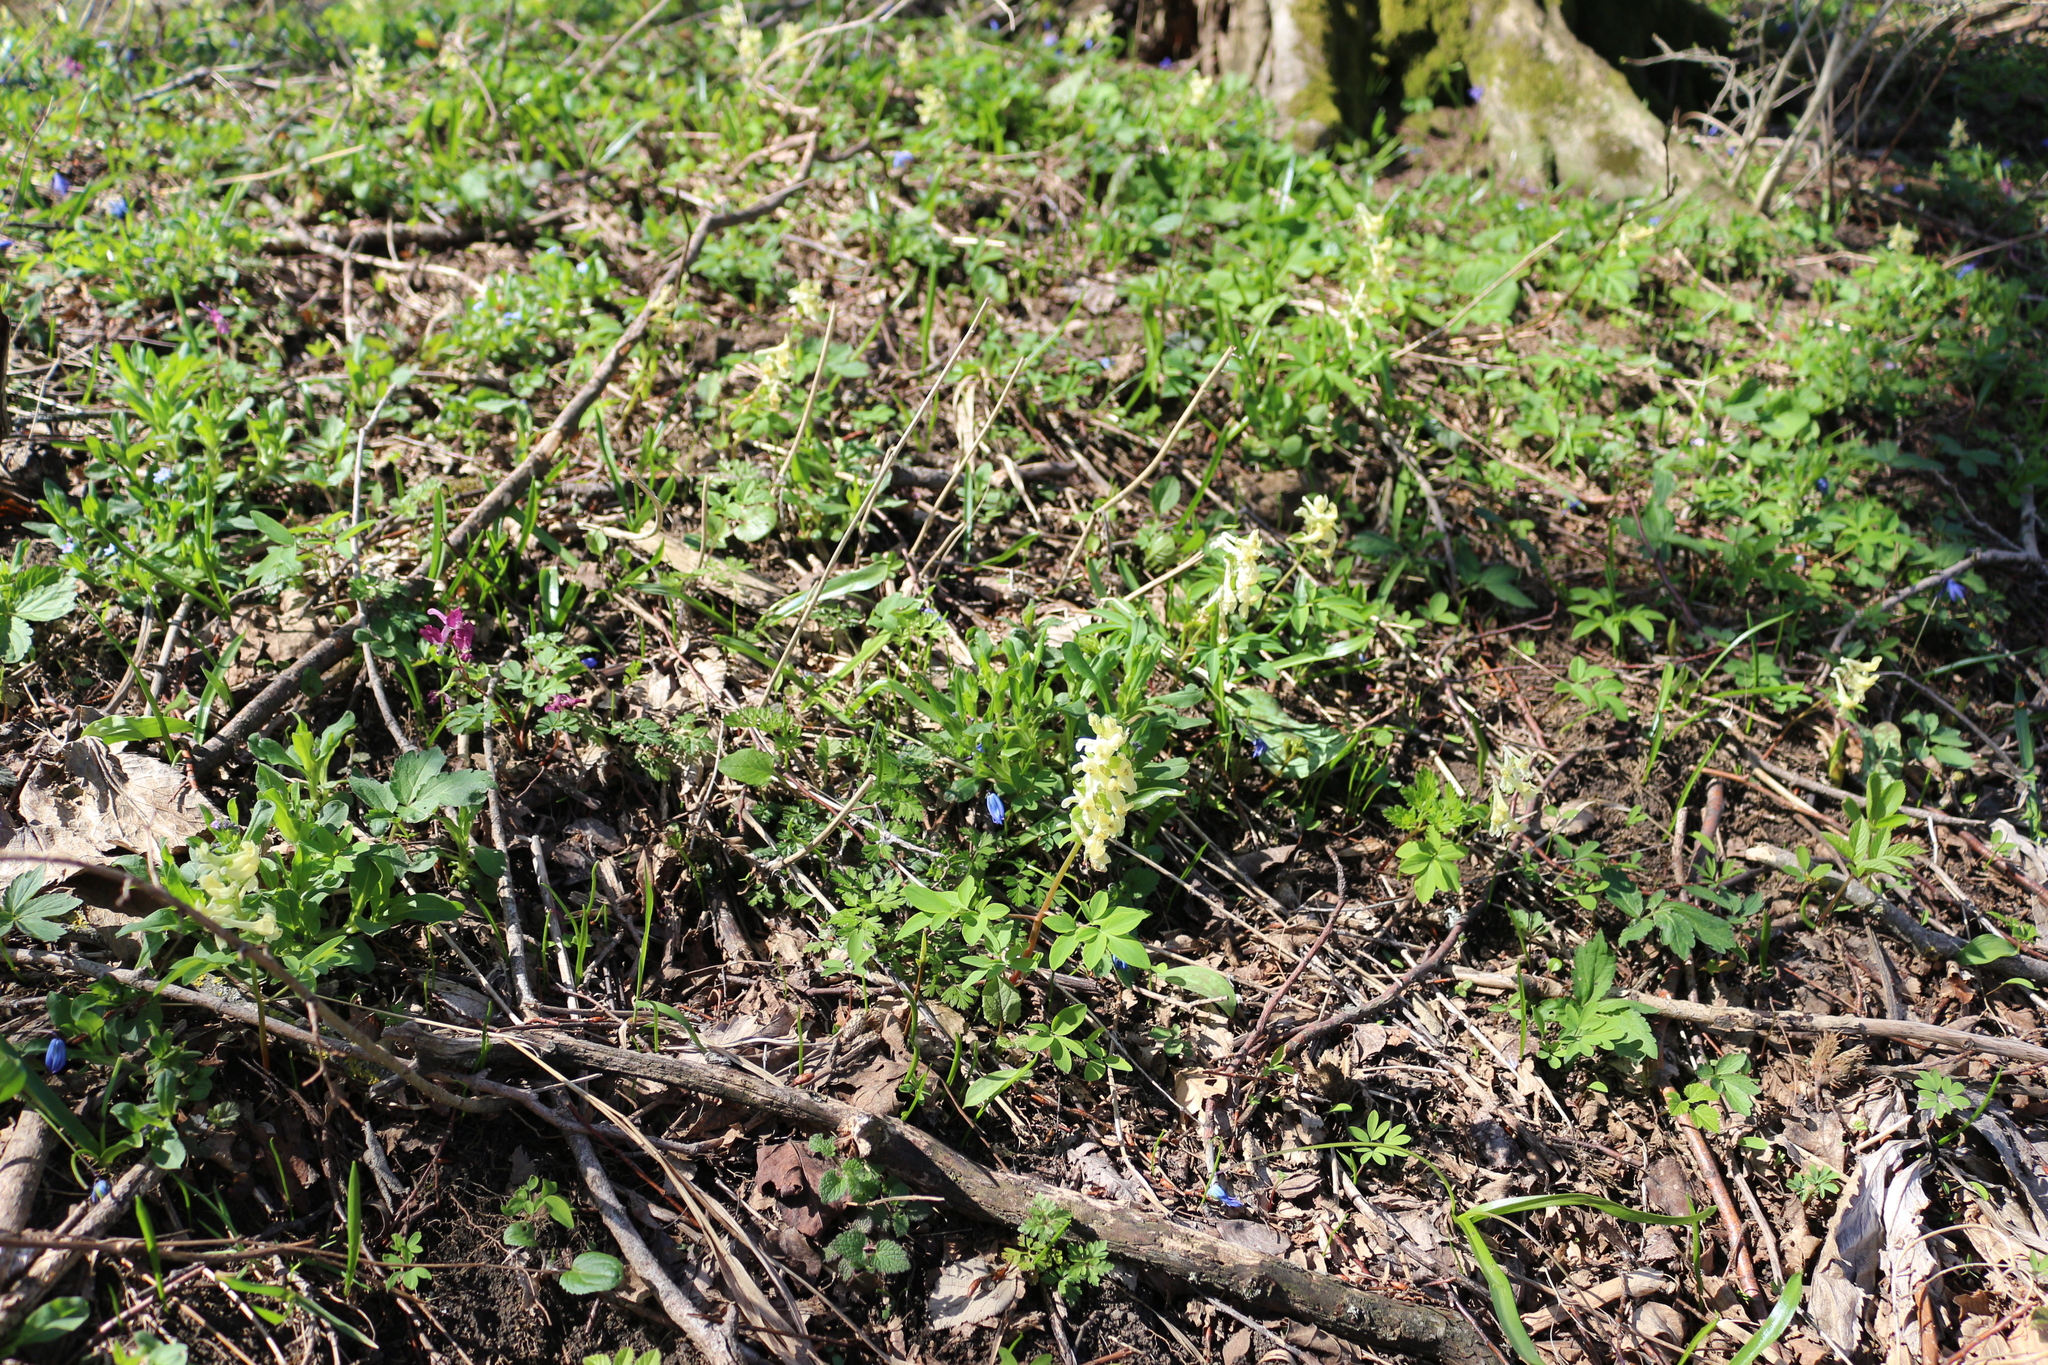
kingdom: Plantae
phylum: Tracheophyta
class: Magnoliopsida
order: Ranunculales
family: Papaveraceae
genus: Corydalis
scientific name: Corydalis cava
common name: Hollowroot
